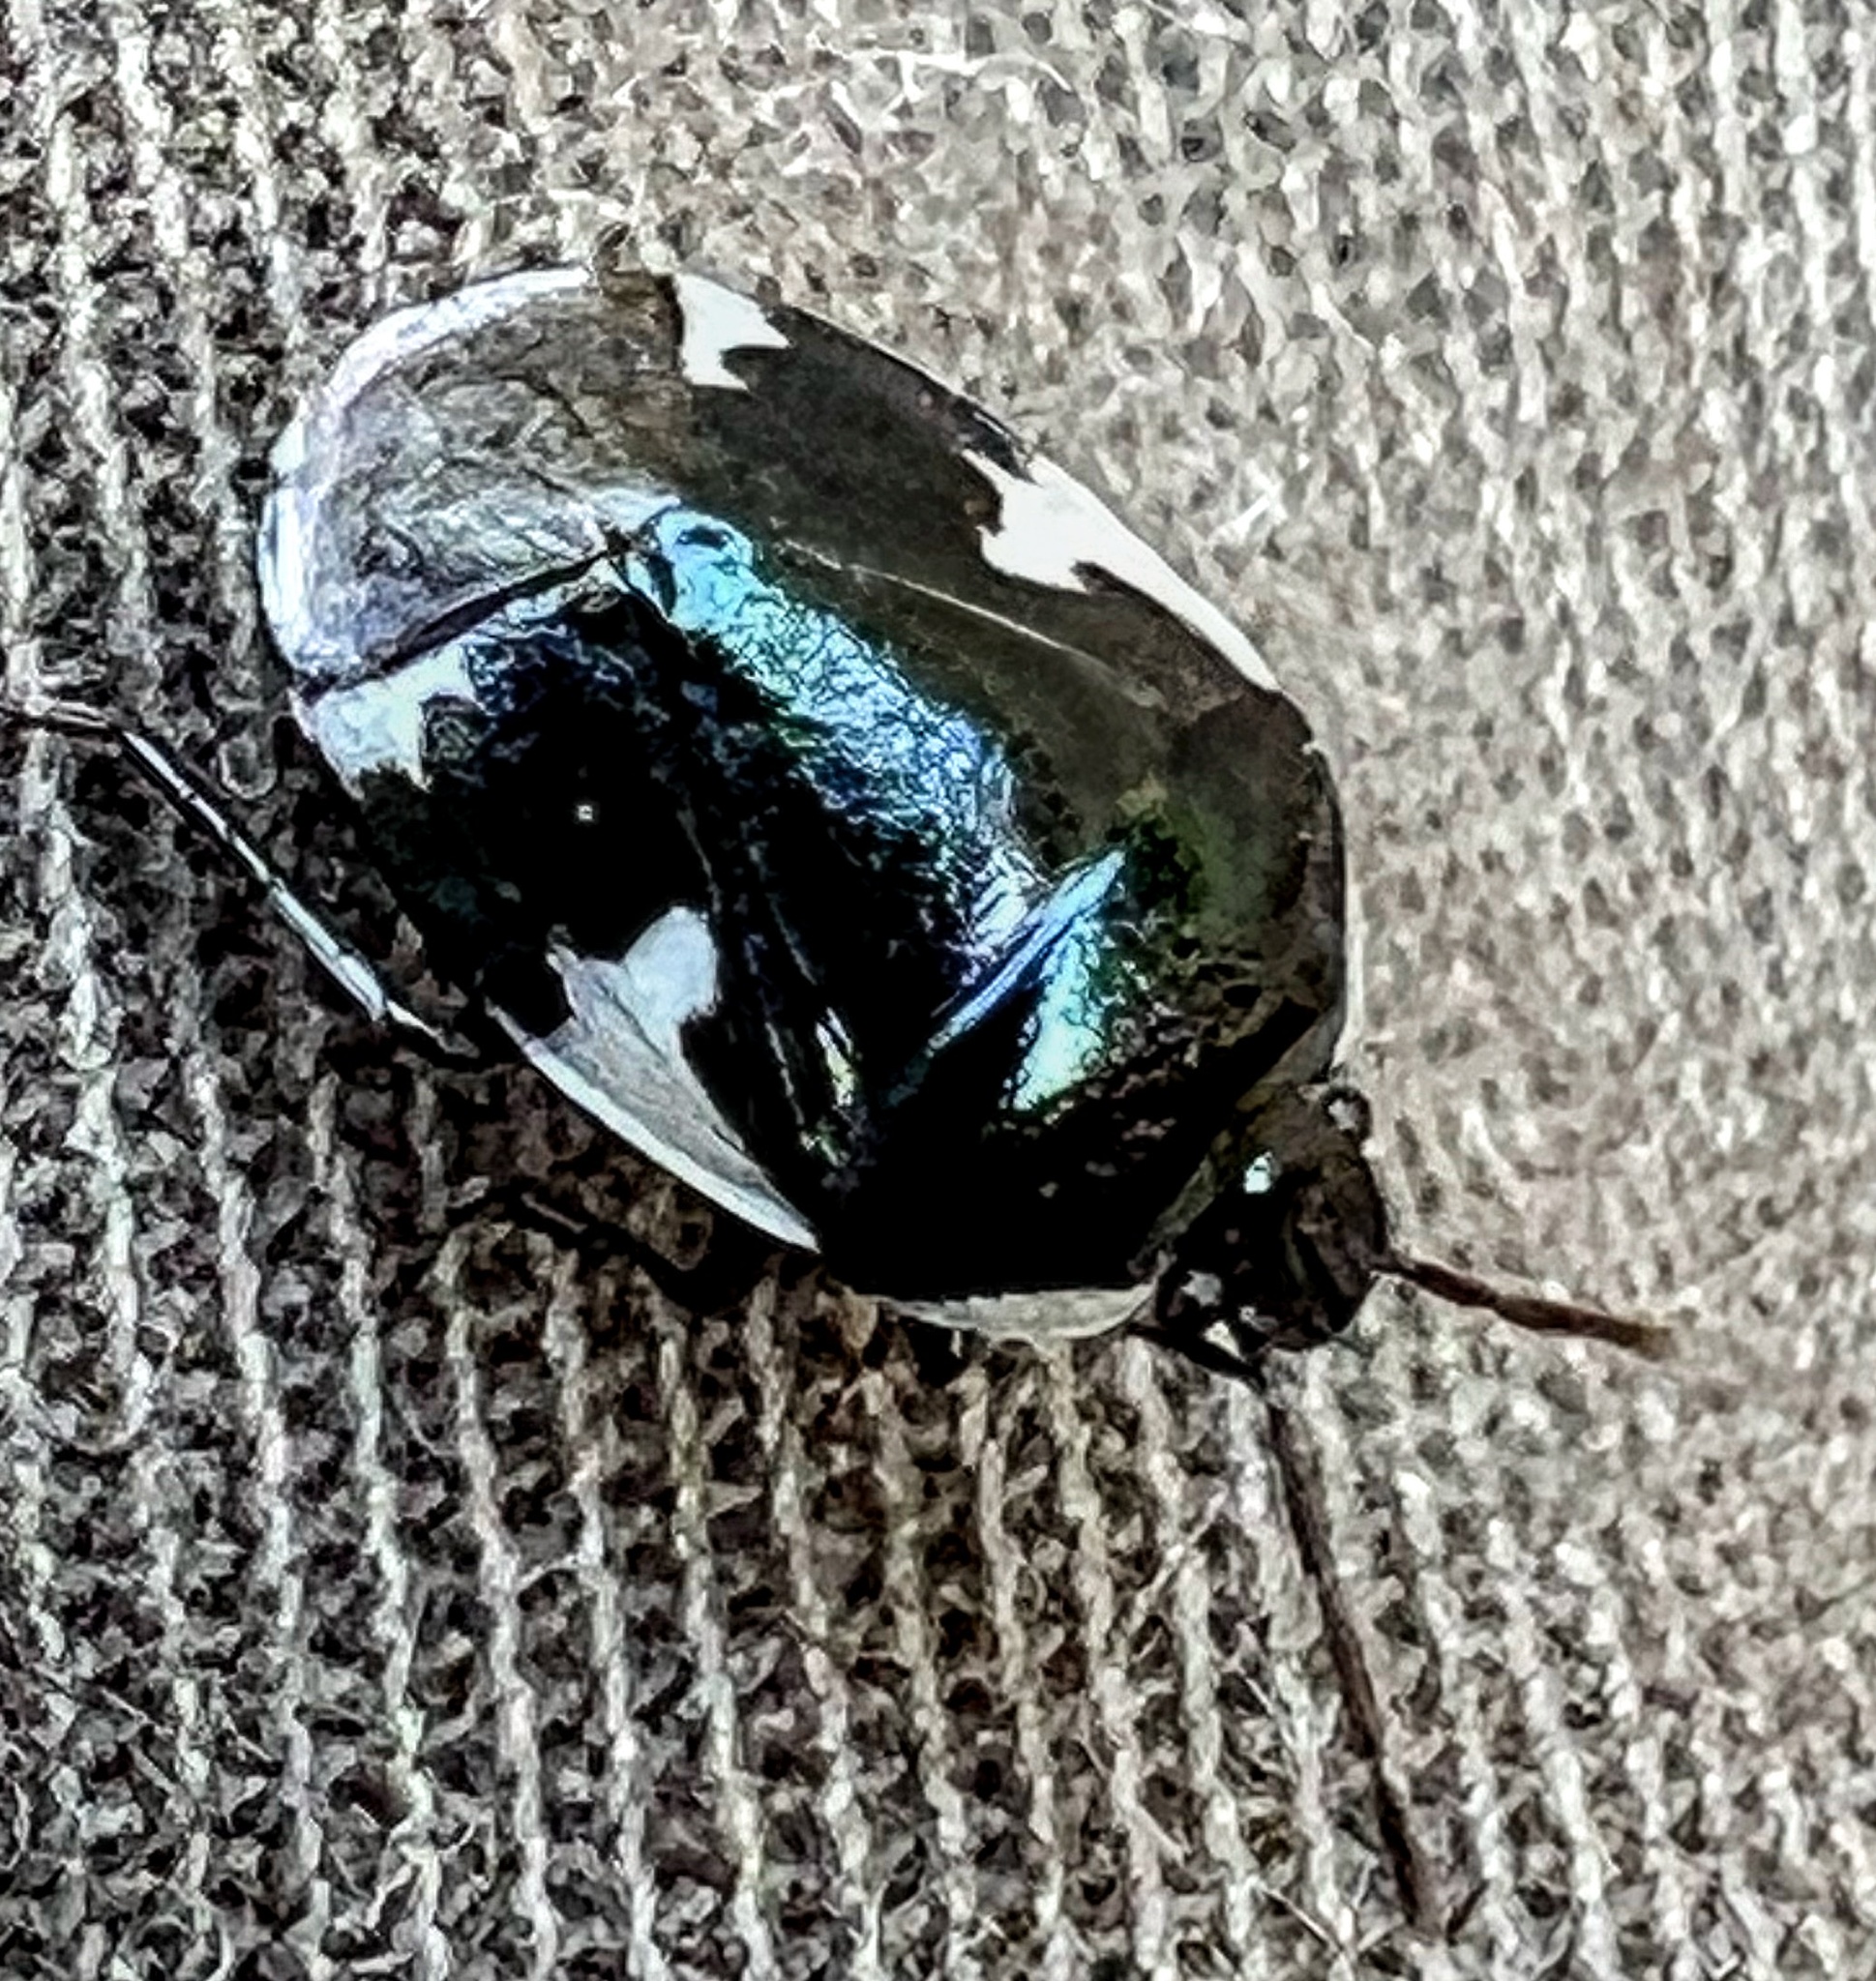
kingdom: Animalia
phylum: Arthropoda
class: Insecta
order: Hemiptera
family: Cydnidae
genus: Tritomegas
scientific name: Tritomegas sexmaculatus
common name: Rambur's pied shieldbug
